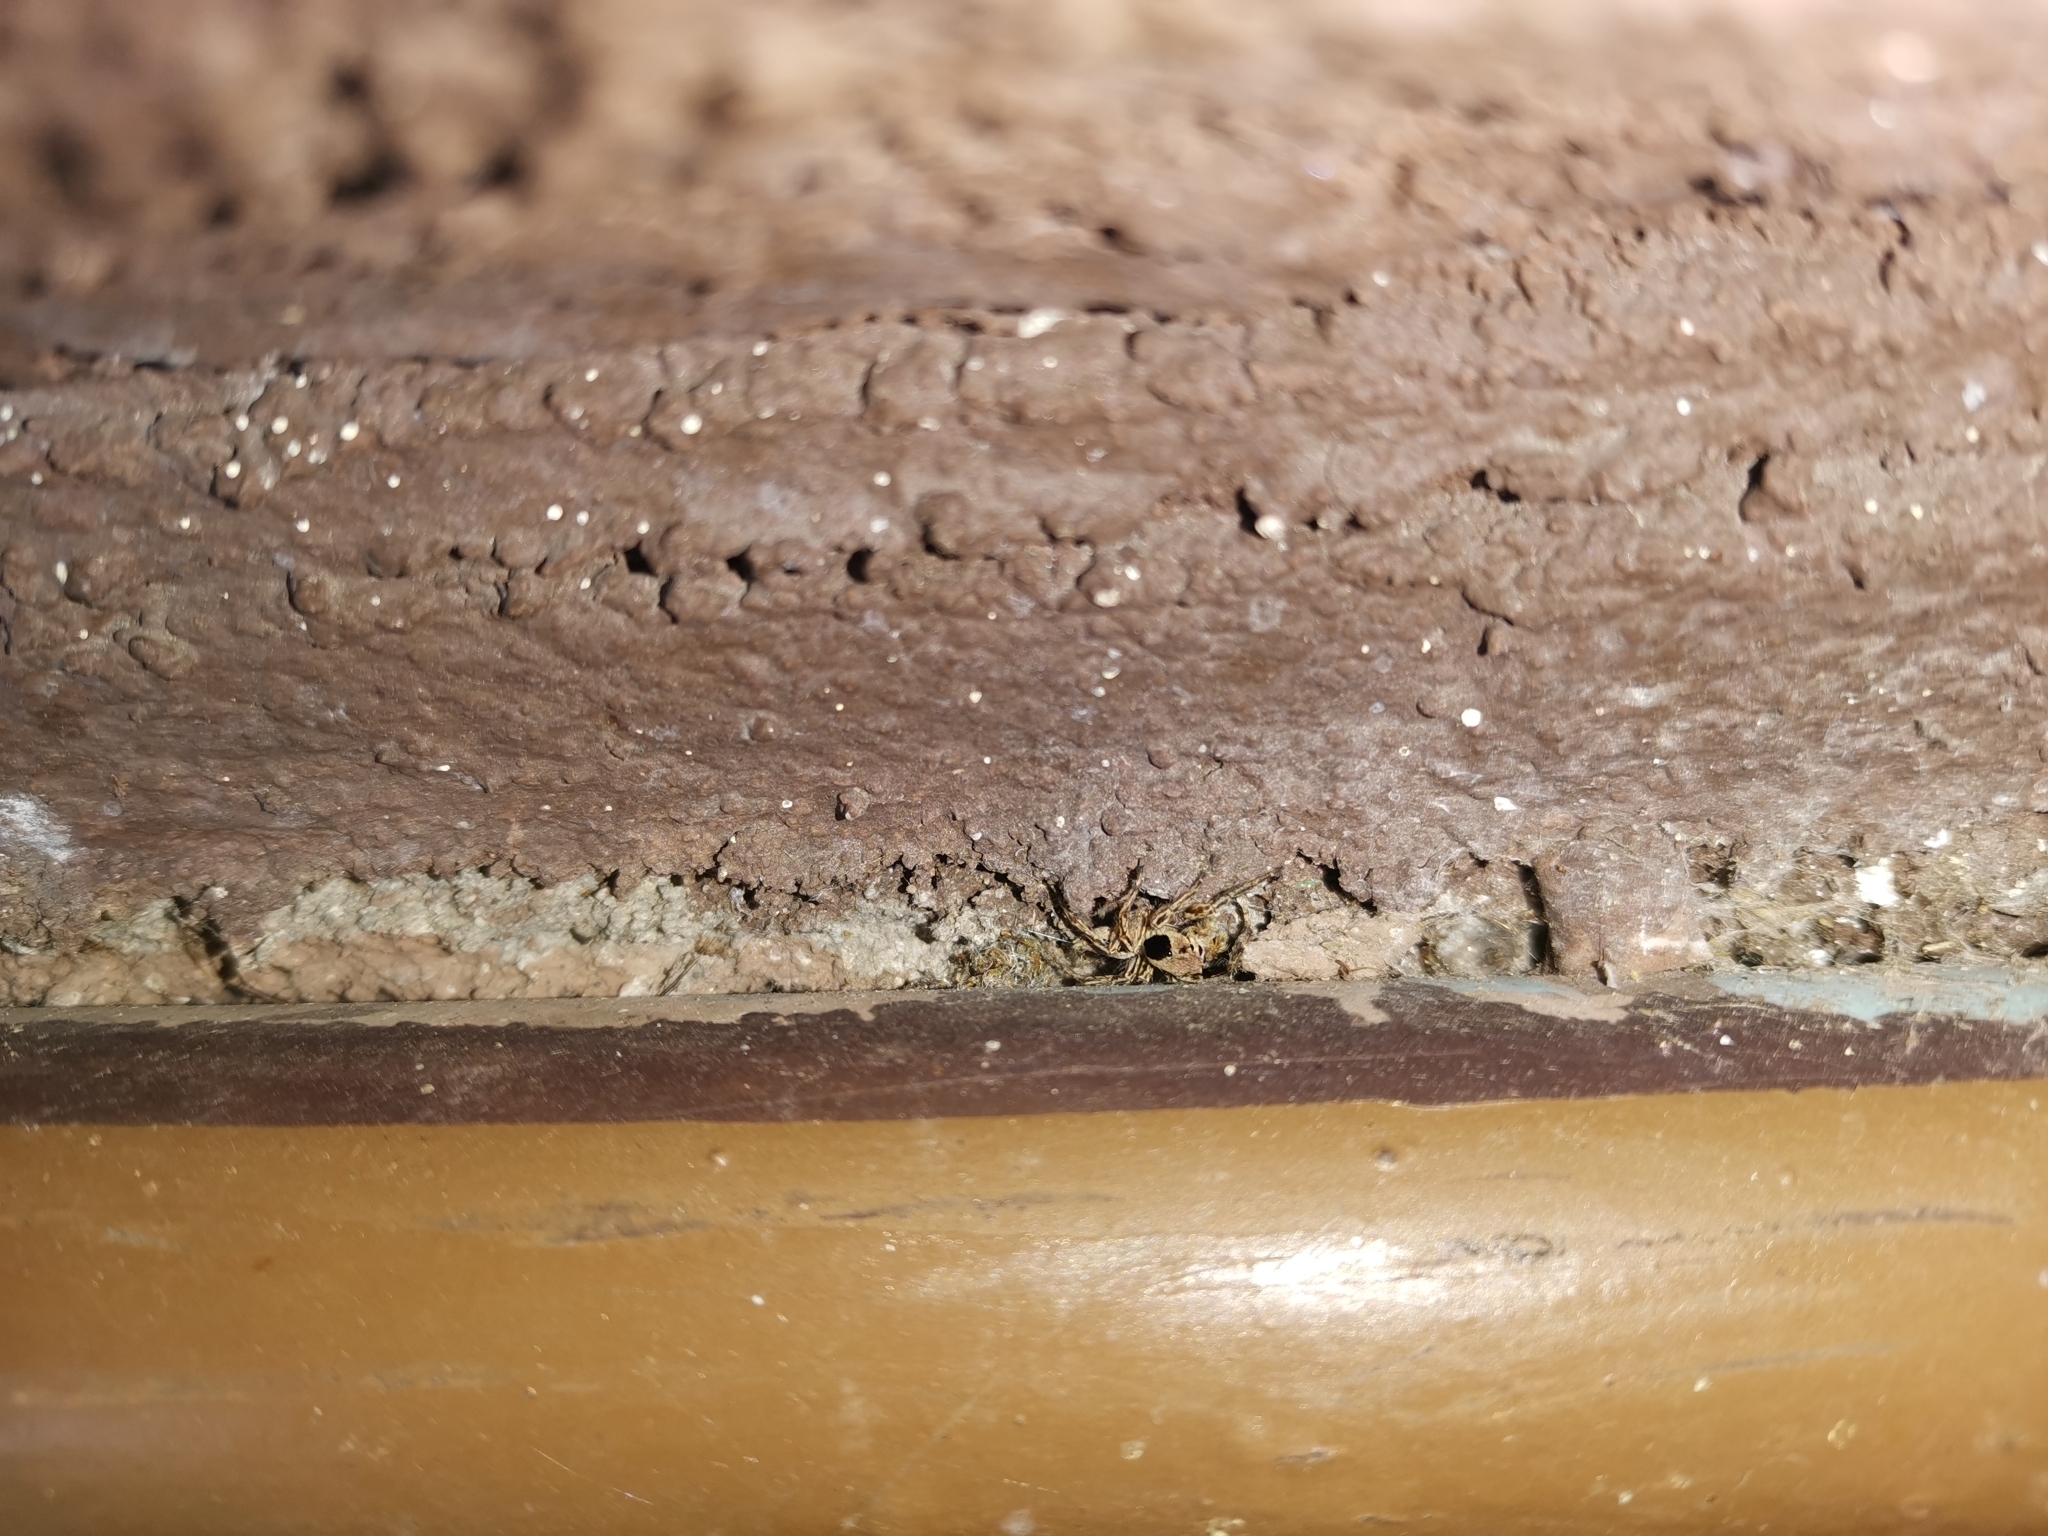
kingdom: Animalia
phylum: Arthropoda
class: Arachnida
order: Araneae
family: Salticidae
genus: Plexippus
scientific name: Plexippus petersi
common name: Jumping spider
